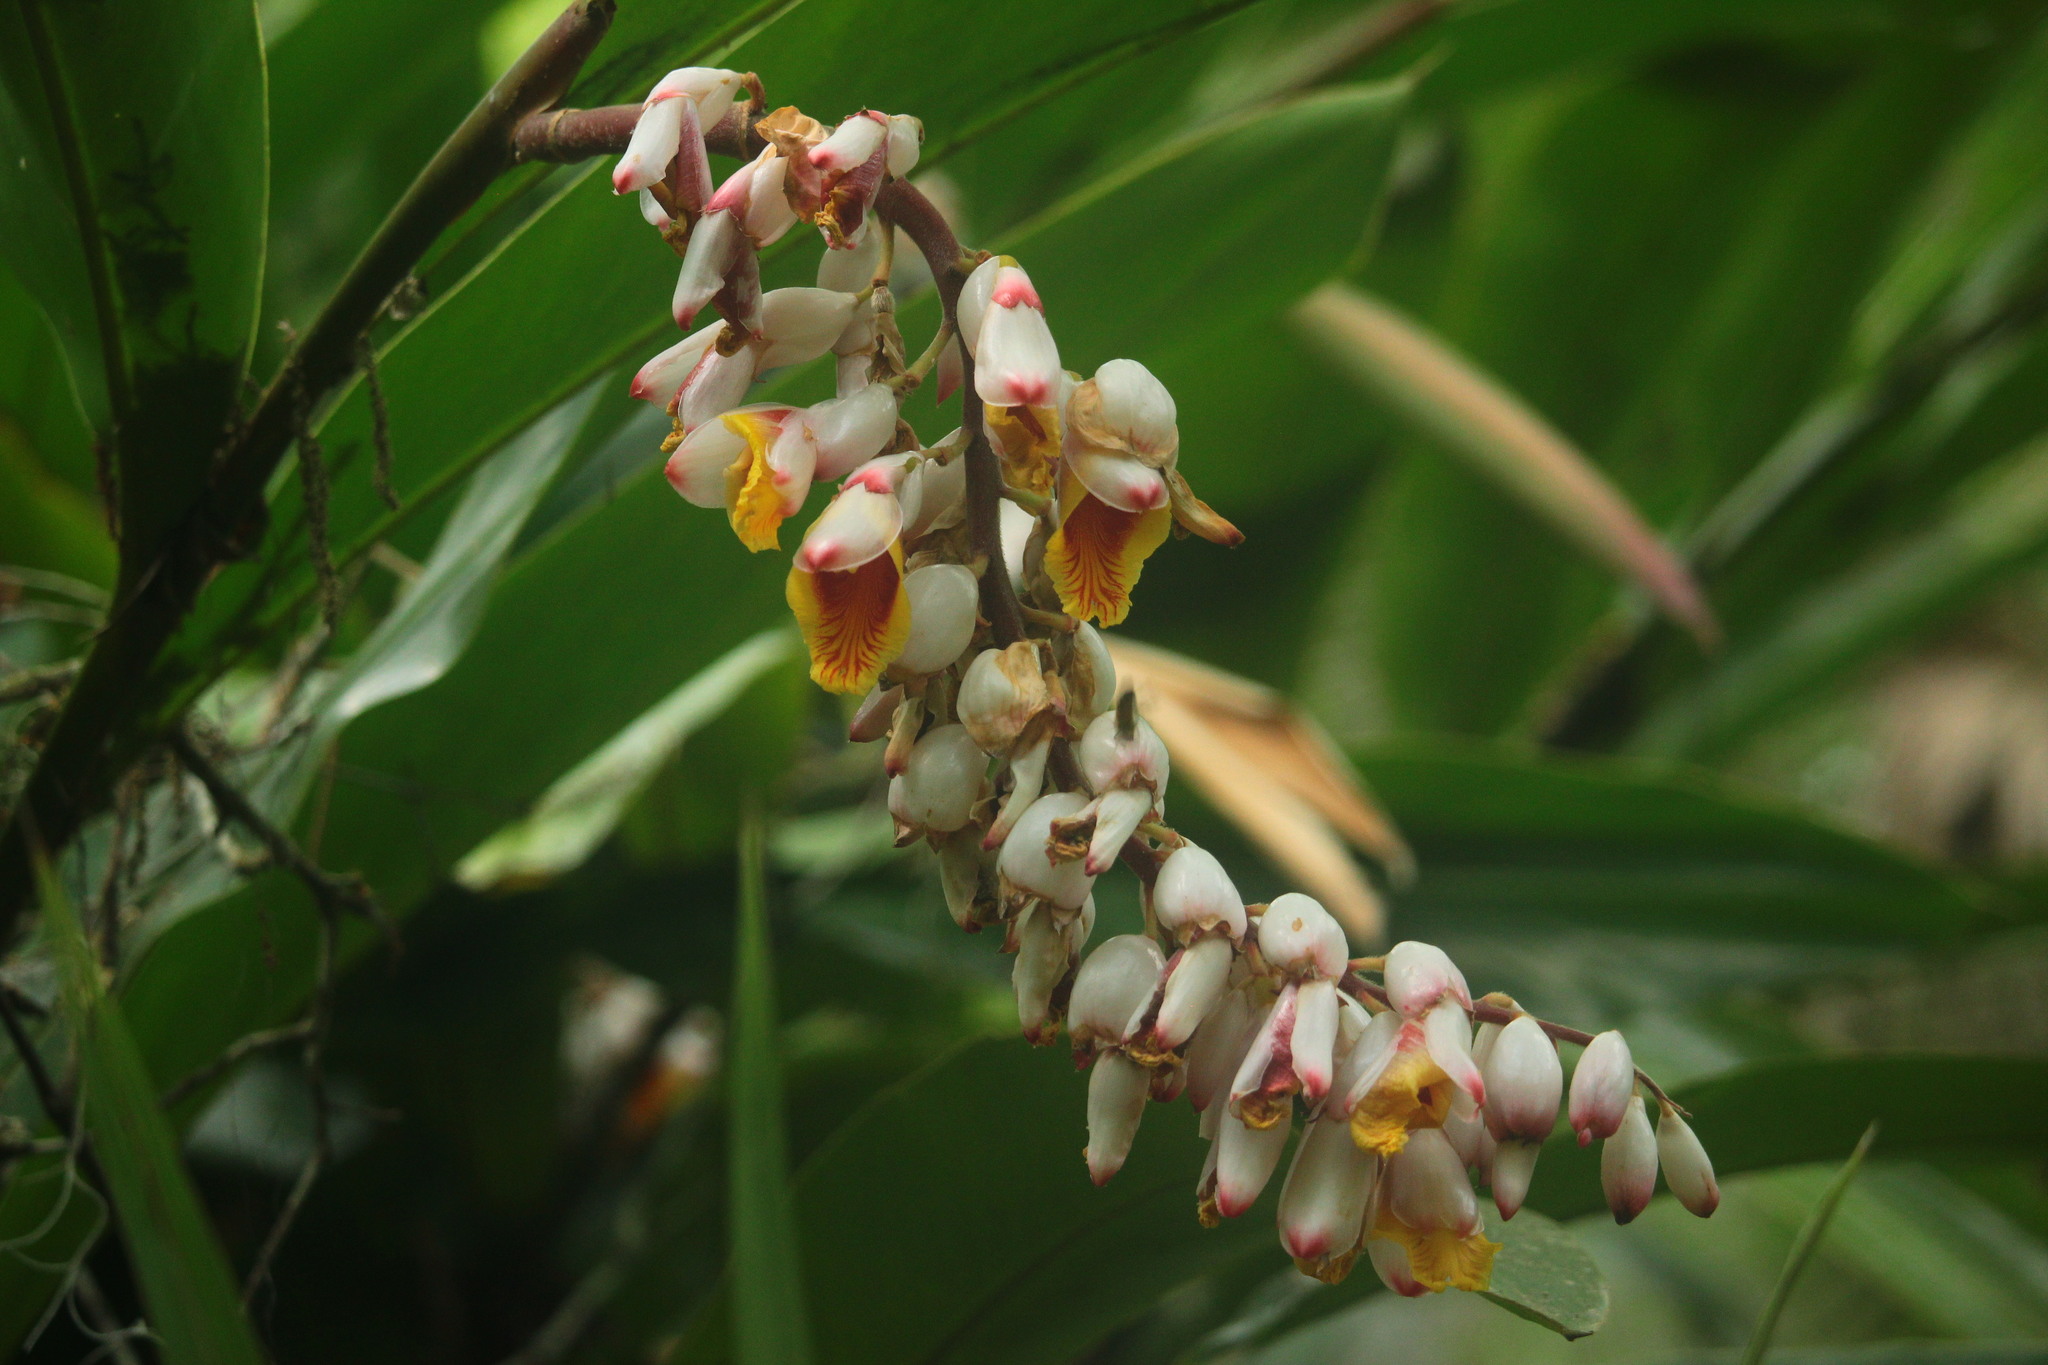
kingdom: Plantae
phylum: Tracheophyta
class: Liliopsida
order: Zingiberales
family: Zingiberaceae
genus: Alpinia
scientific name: Alpinia zerumbet
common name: Shellplant
